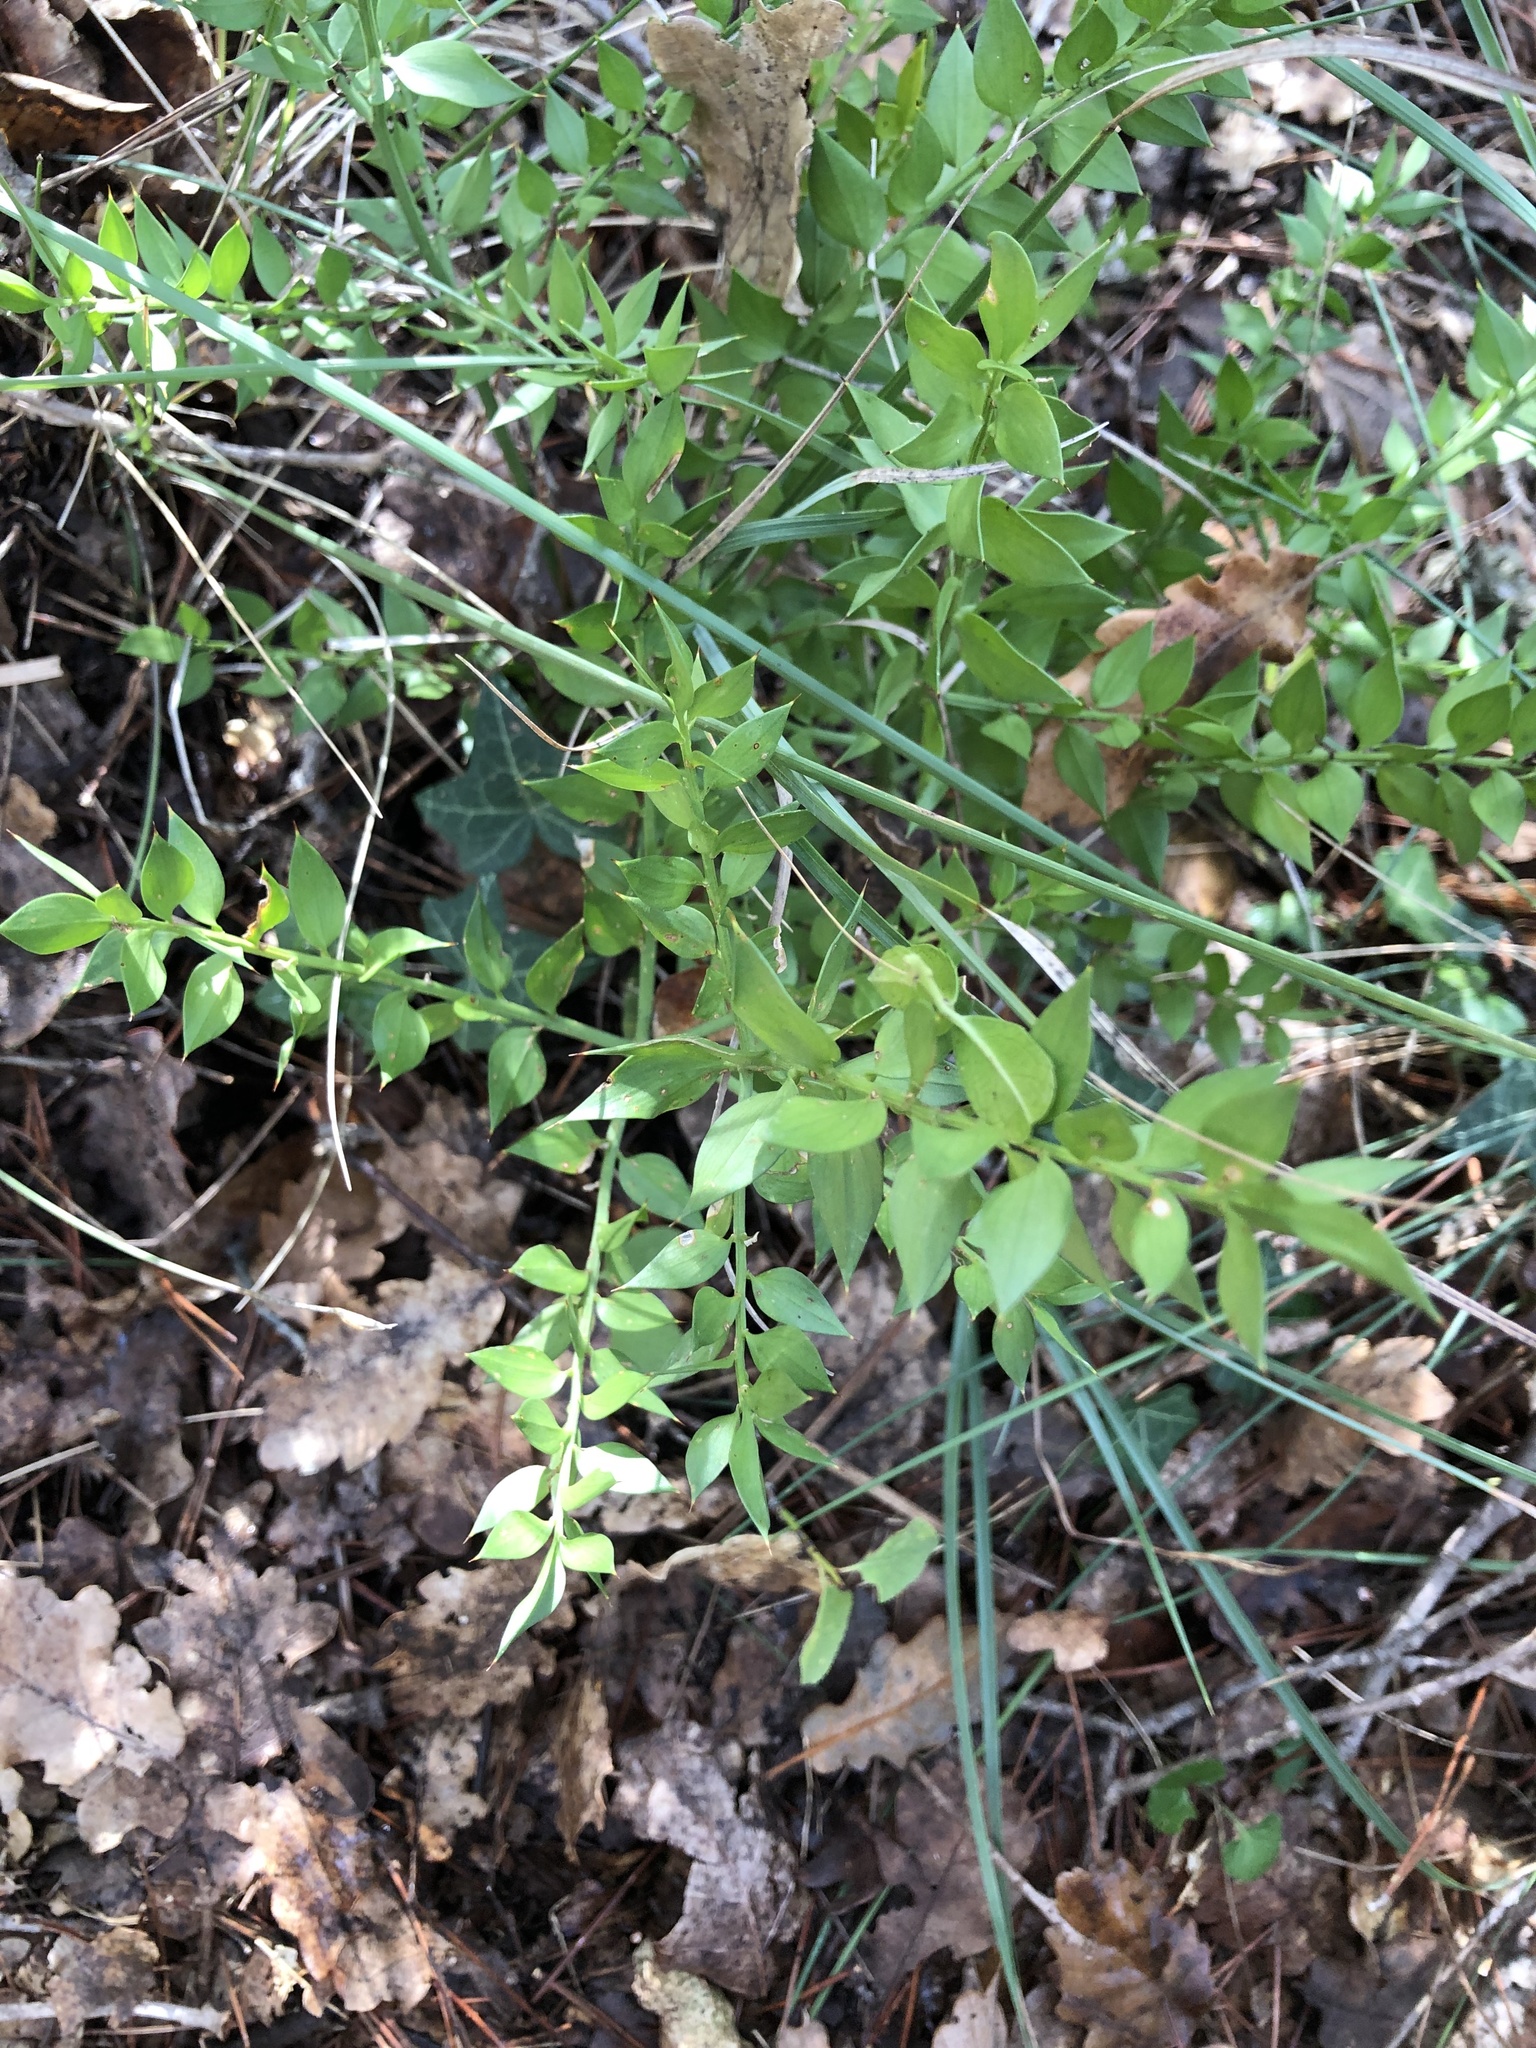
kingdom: Plantae
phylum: Tracheophyta
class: Liliopsida
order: Asparagales
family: Asparagaceae
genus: Ruscus
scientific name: Ruscus aculeatus
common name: Butcher's-broom
